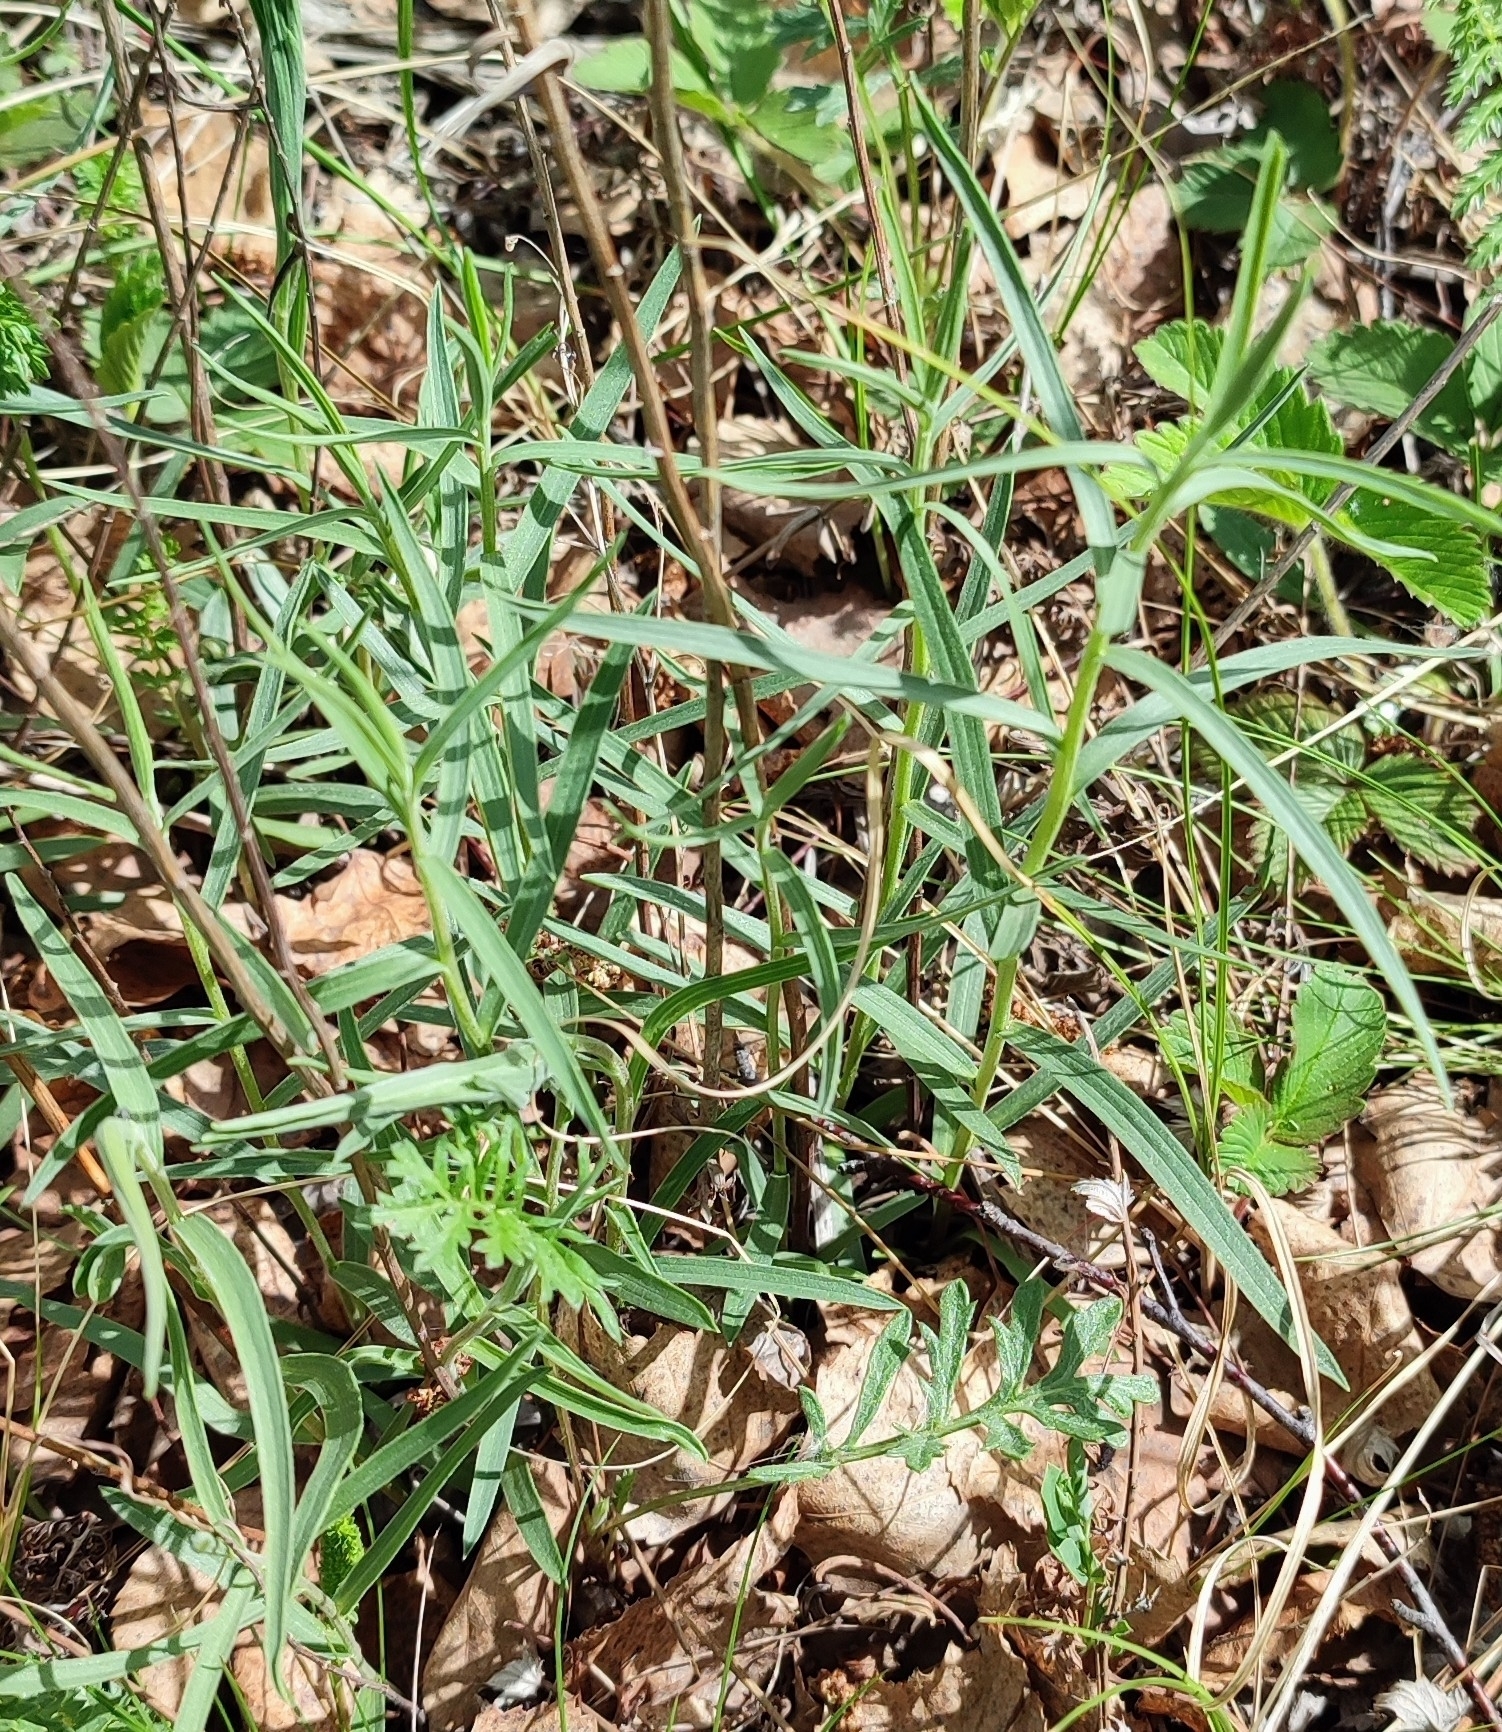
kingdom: Plantae
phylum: Tracheophyta
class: Magnoliopsida
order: Asterales
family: Asteraceae
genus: Artemisia
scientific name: Artemisia dracunculus
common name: Tarragon
